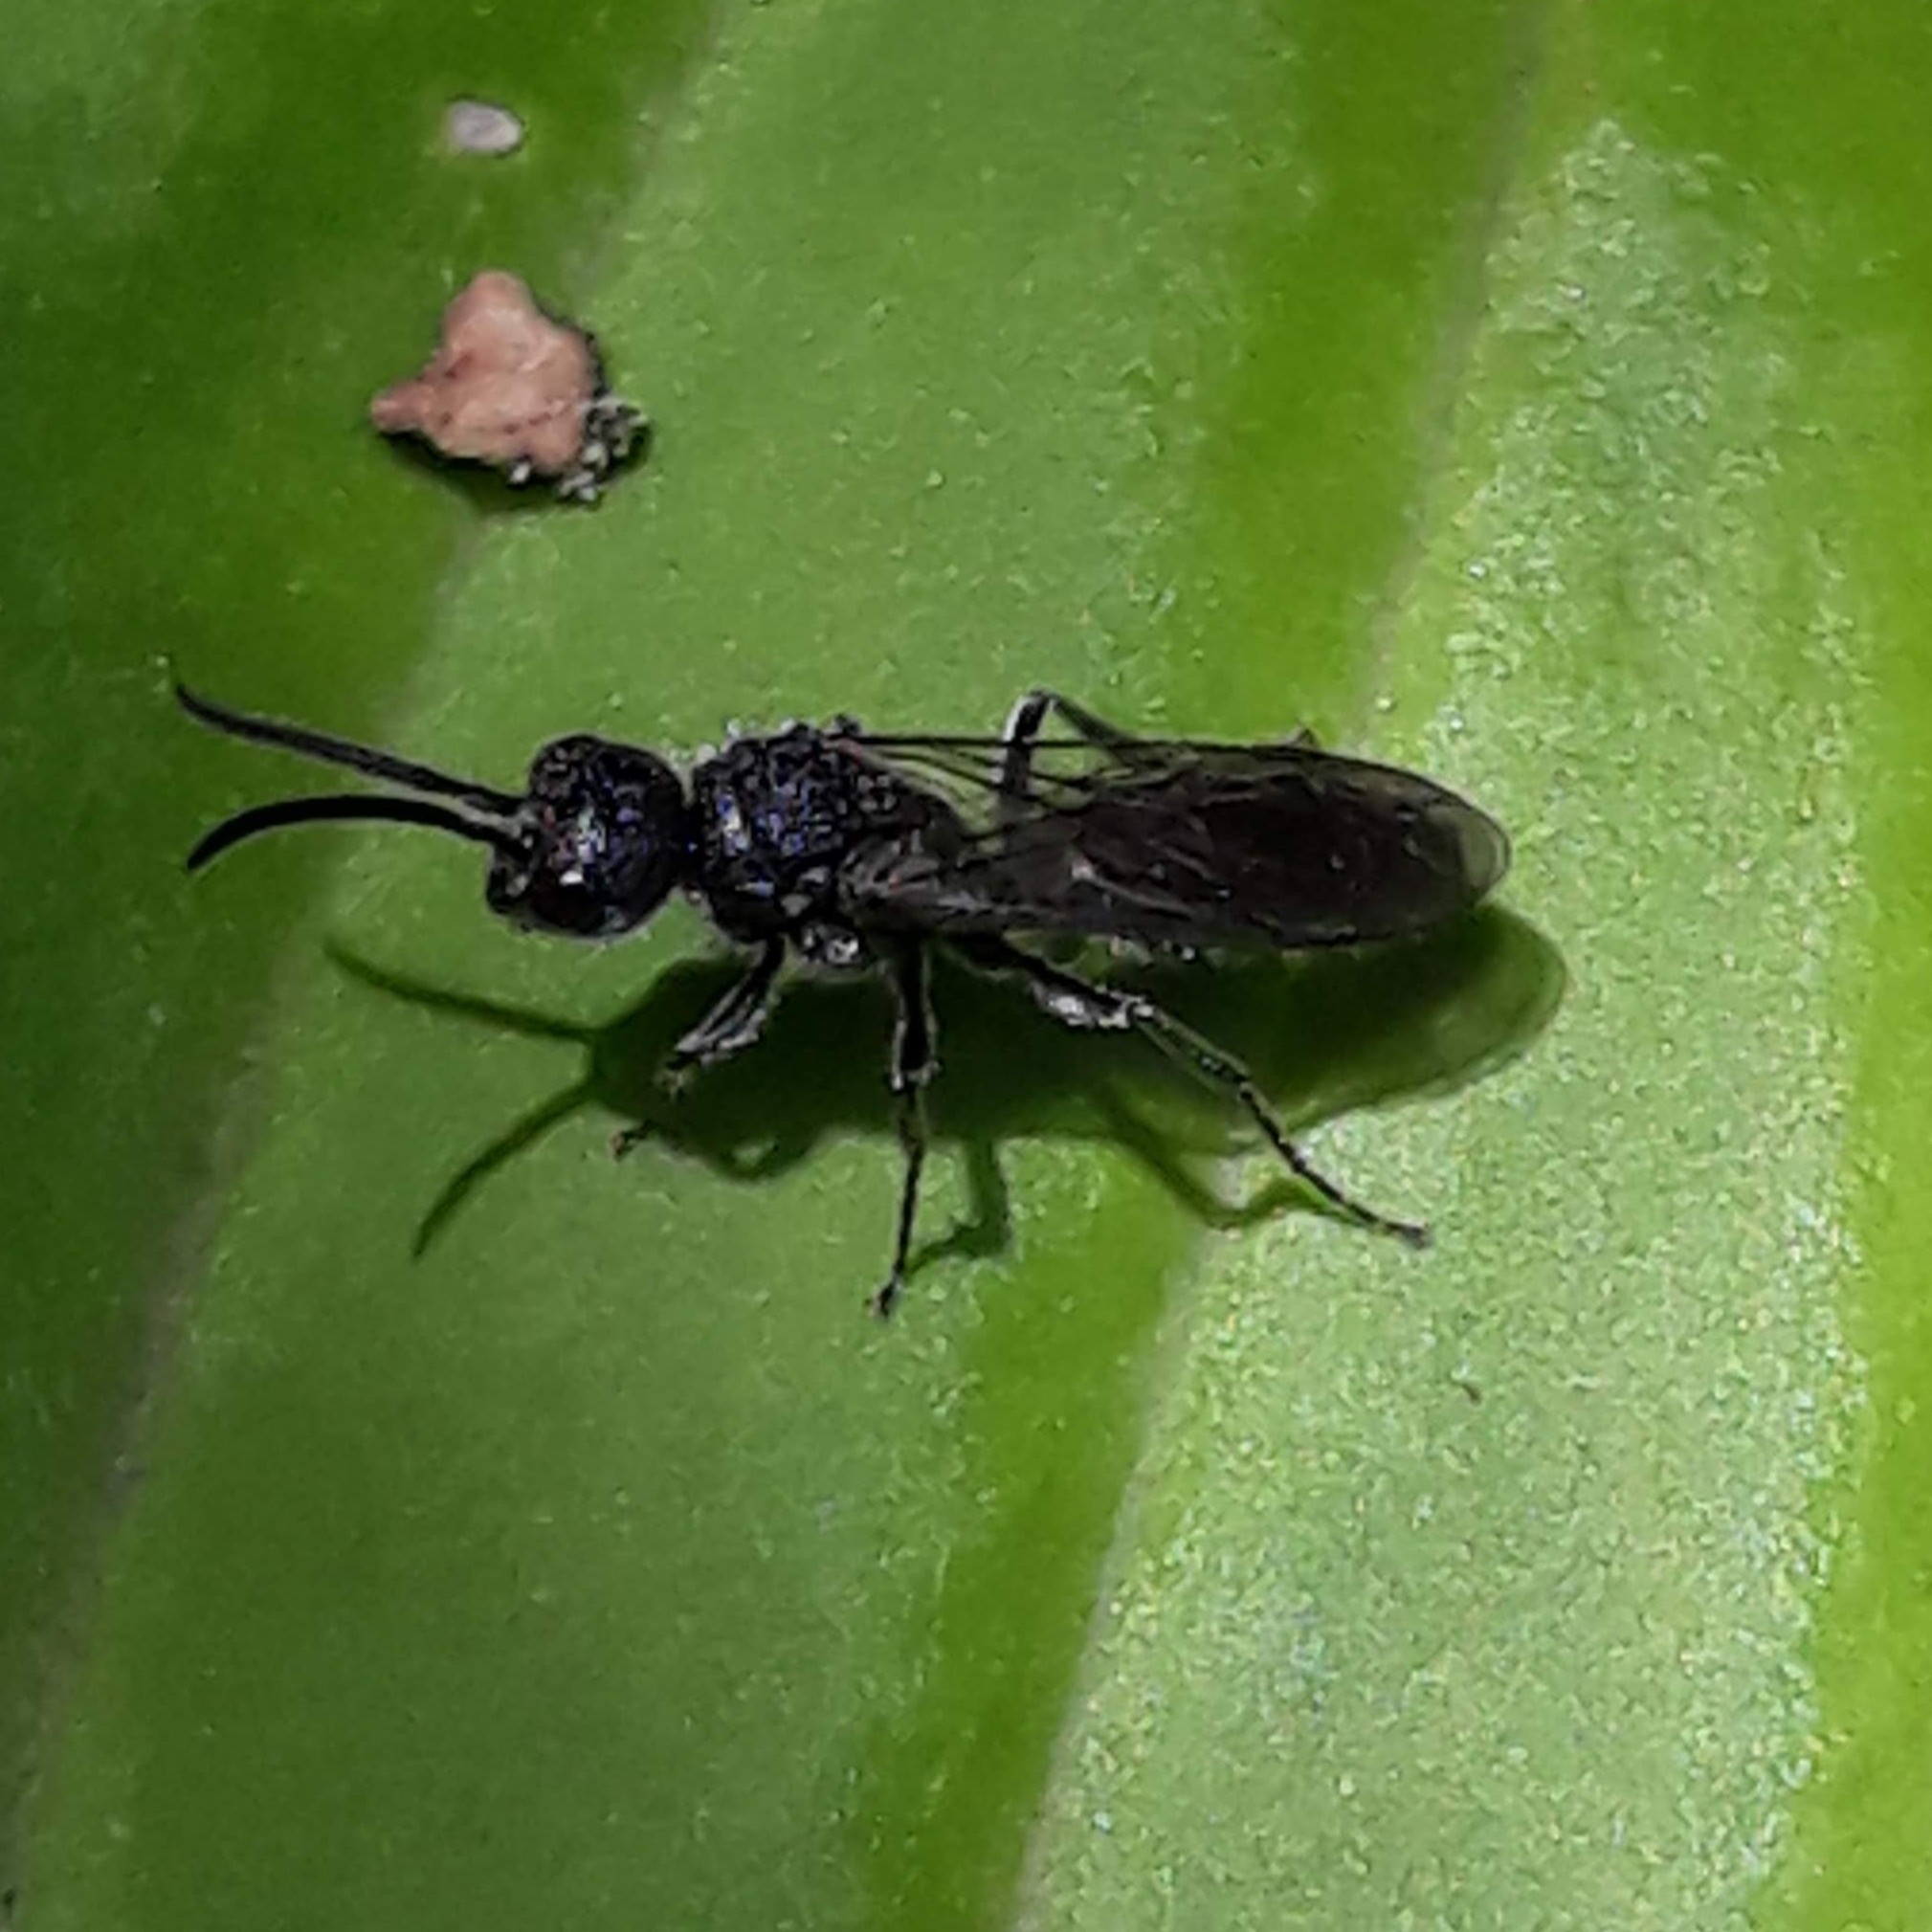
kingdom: Animalia
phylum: Arthropoda
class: Insecta
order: Hymenoptera
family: Mutillidae
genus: Myrmosa
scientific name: Myrmosa unicolor
